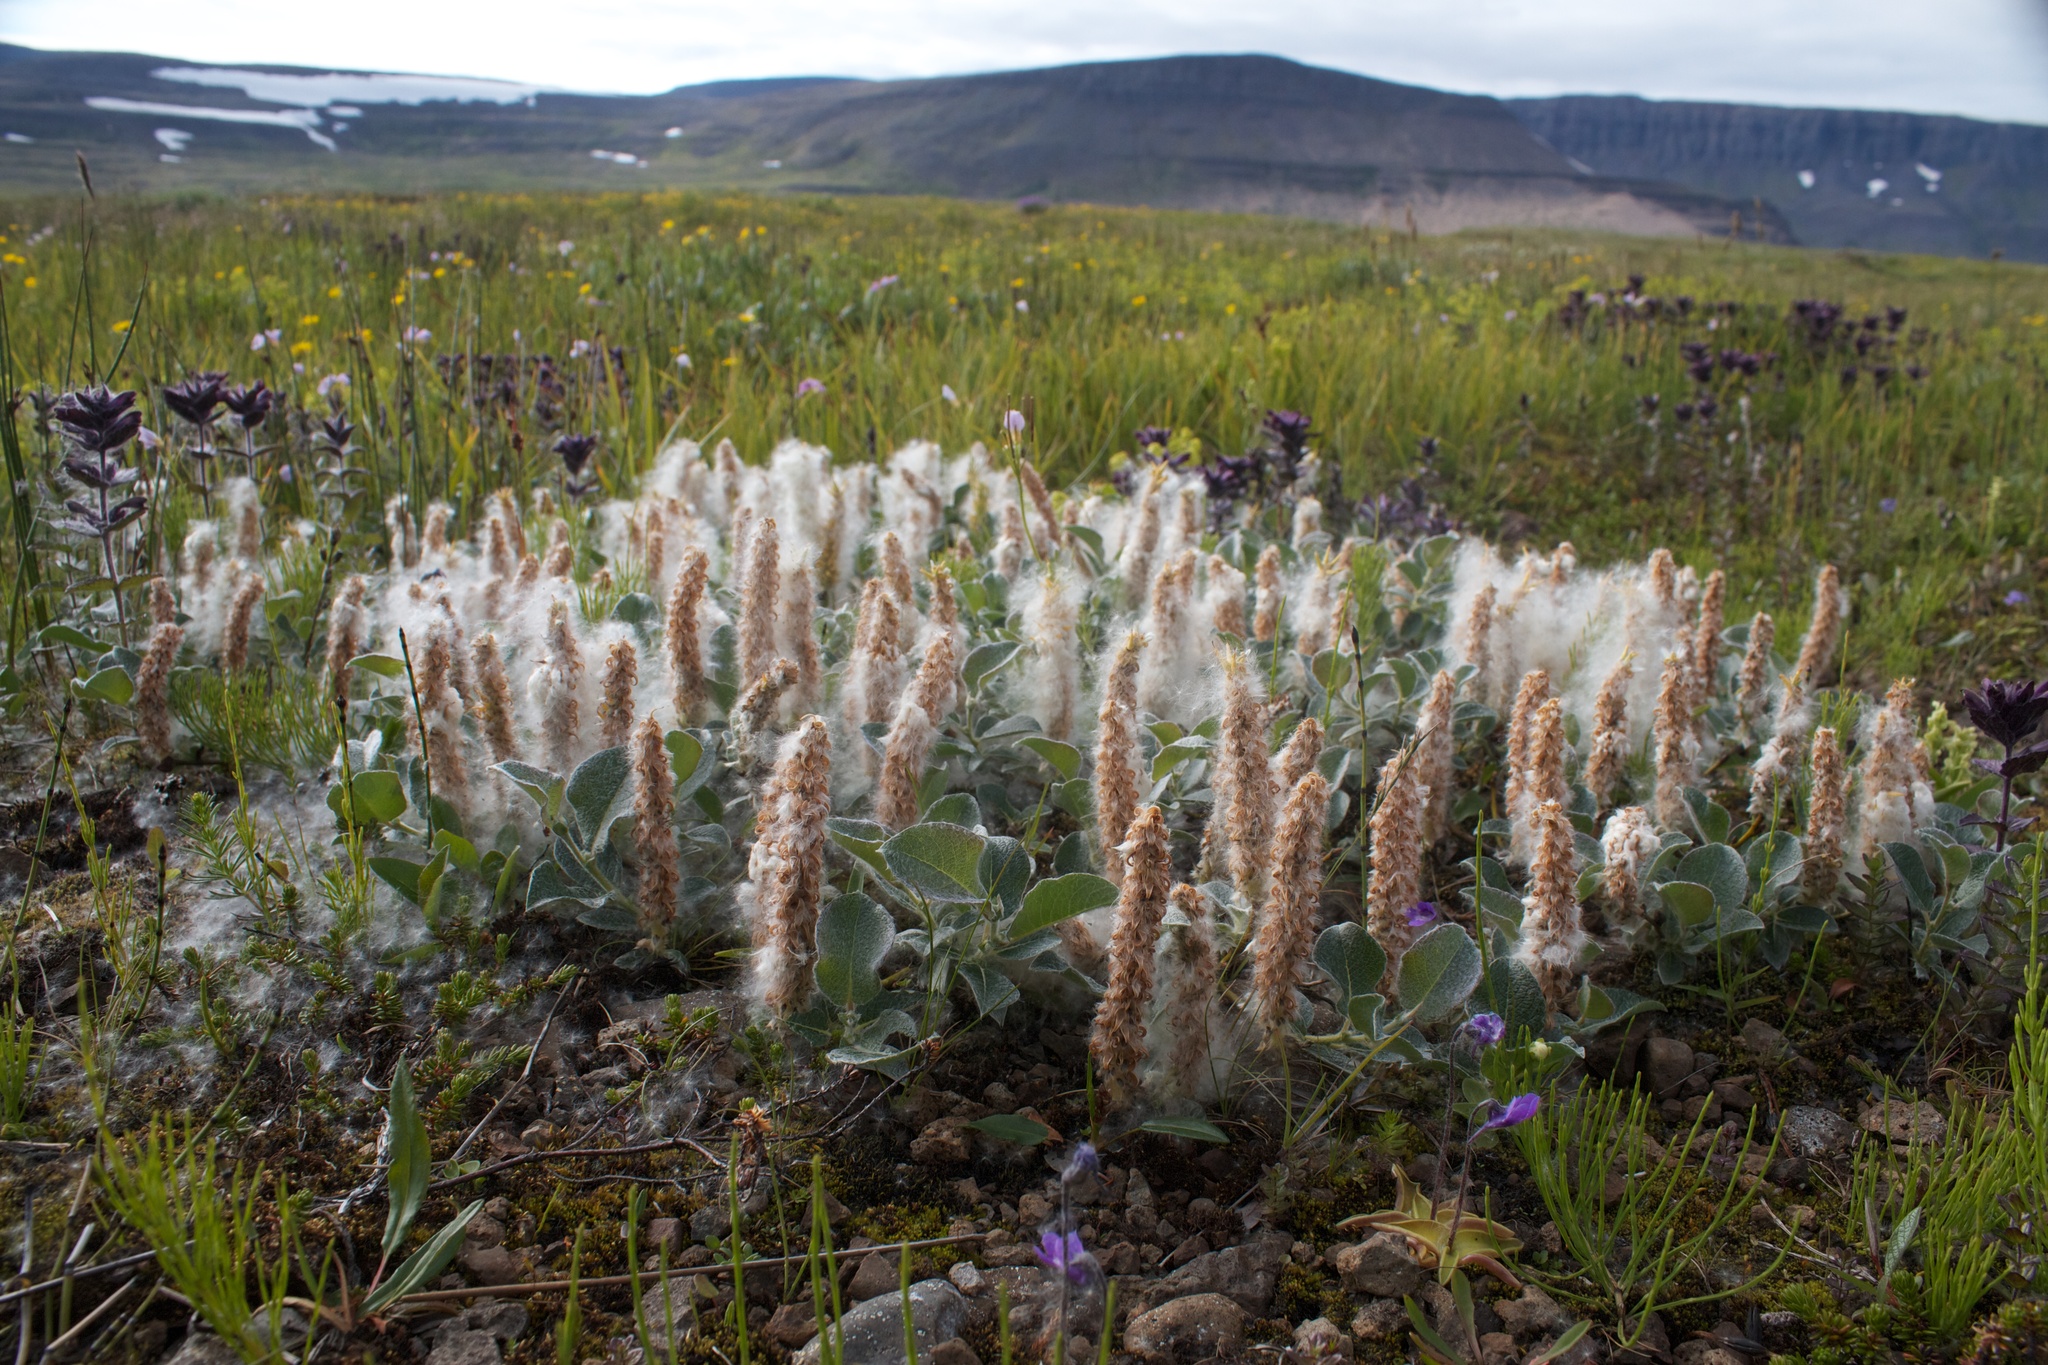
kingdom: Plantae
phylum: Tracheophyta
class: Magnoliopsida
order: Malpighiales
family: Salicaceae
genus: Salix
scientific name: Salix lanata
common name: Woolly willow
